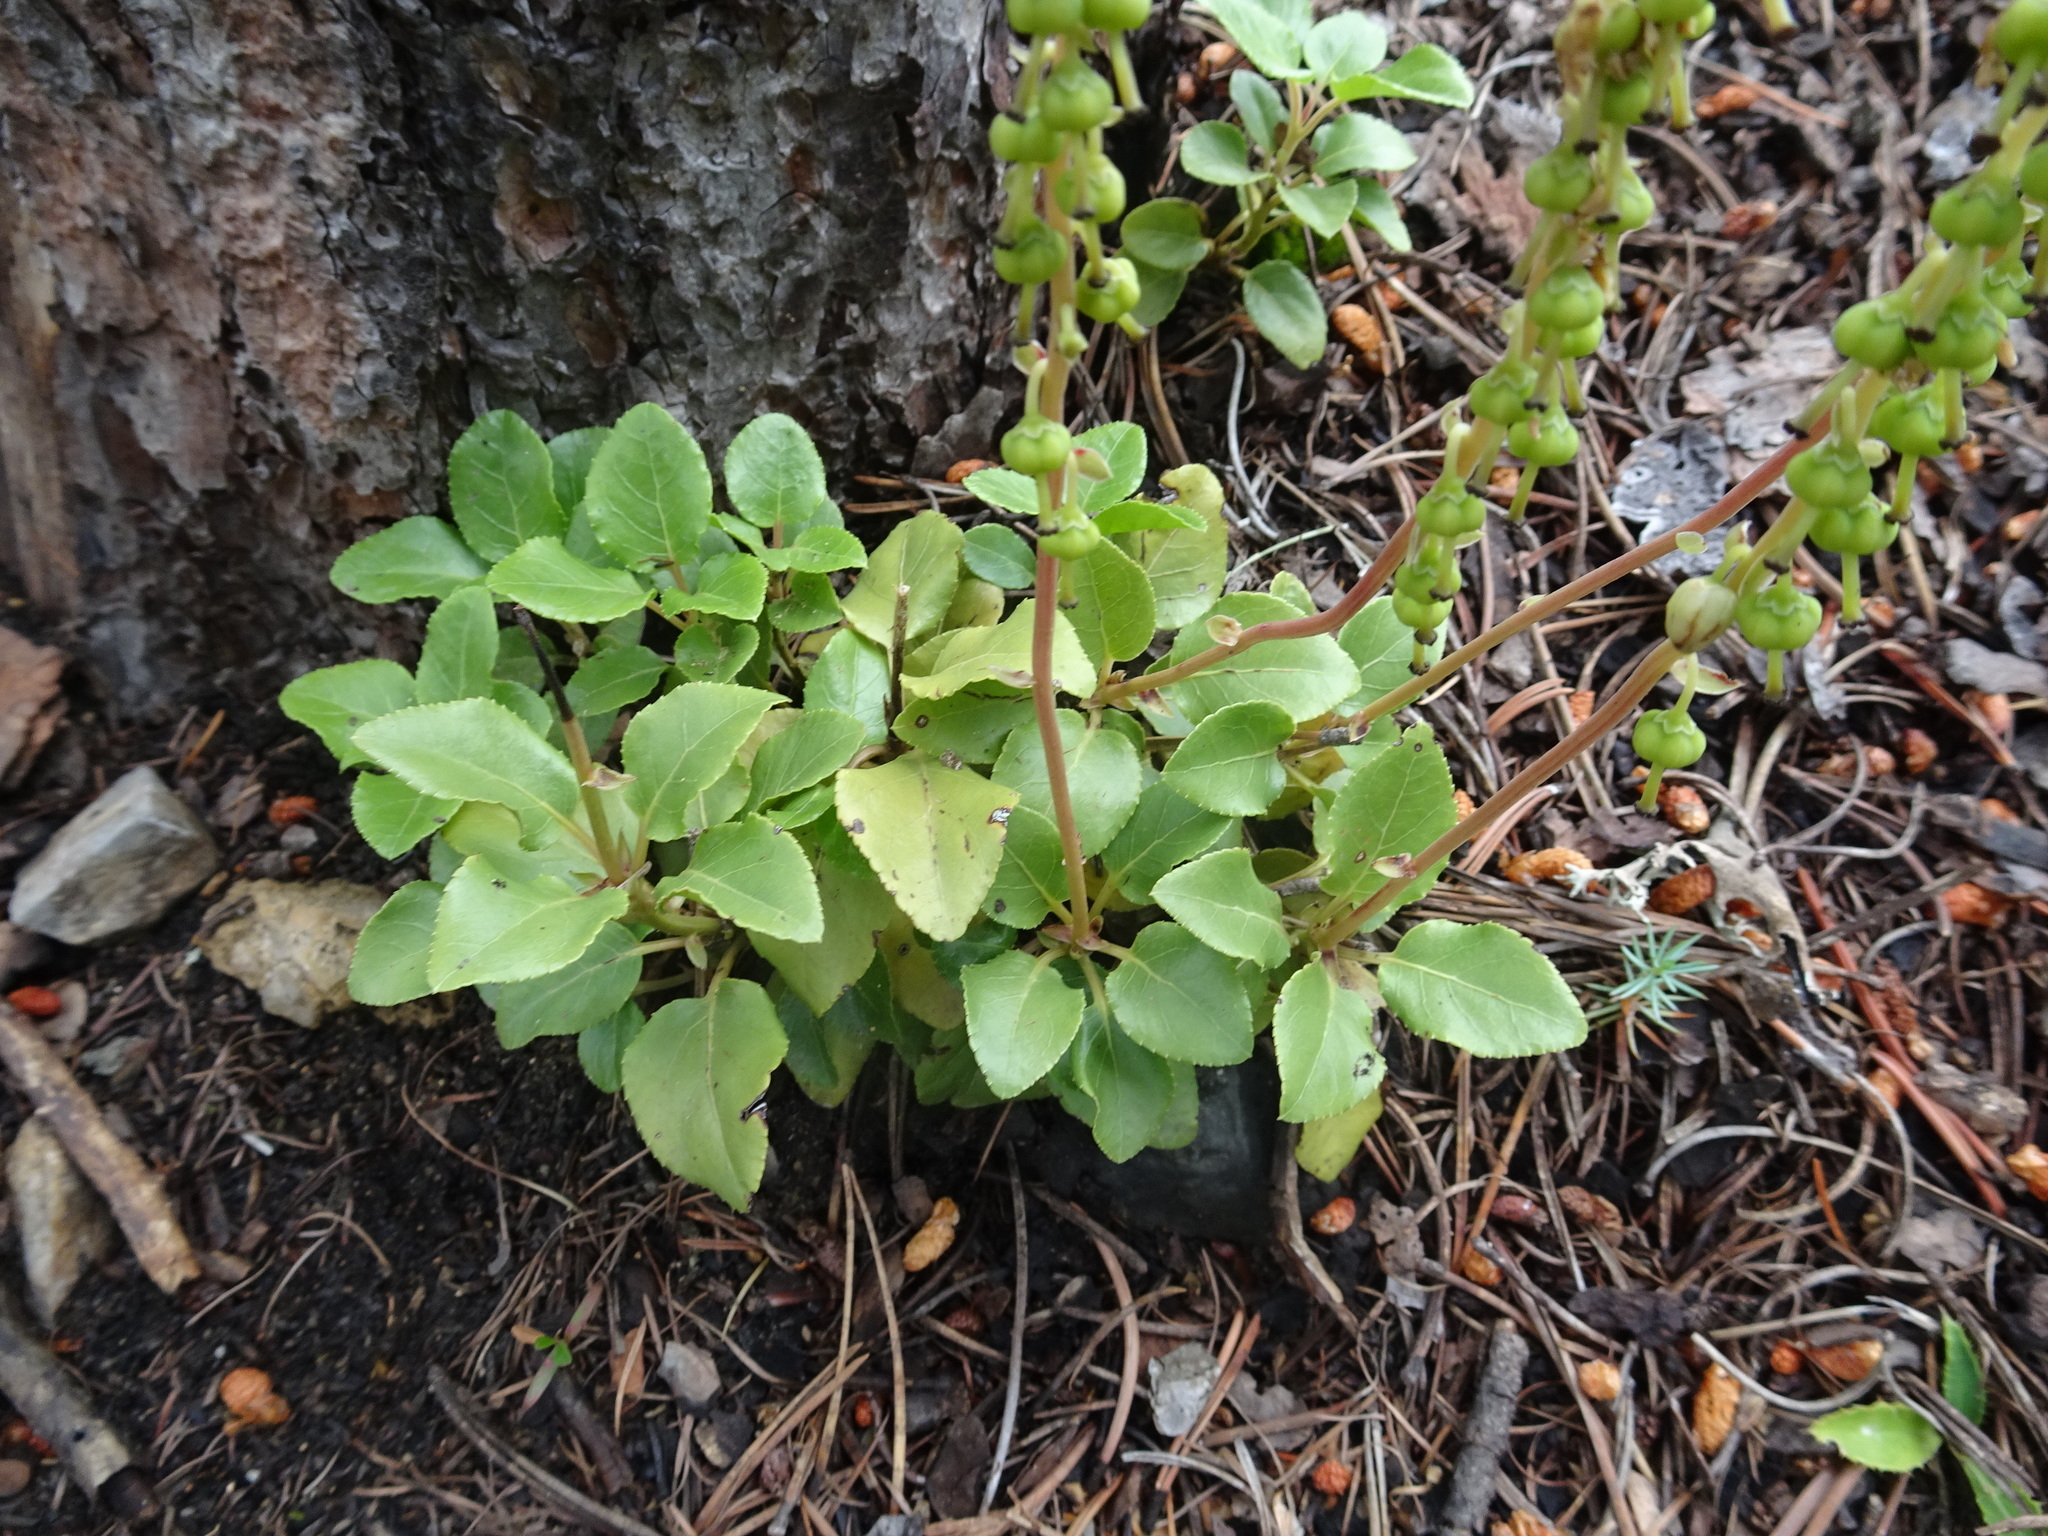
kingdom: Plantae
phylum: Tracheophyta
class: Magnoliopsida
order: Ericales
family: Ericaceae
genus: Orthilia
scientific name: Orthilia secunda
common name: One-sided orthilia
